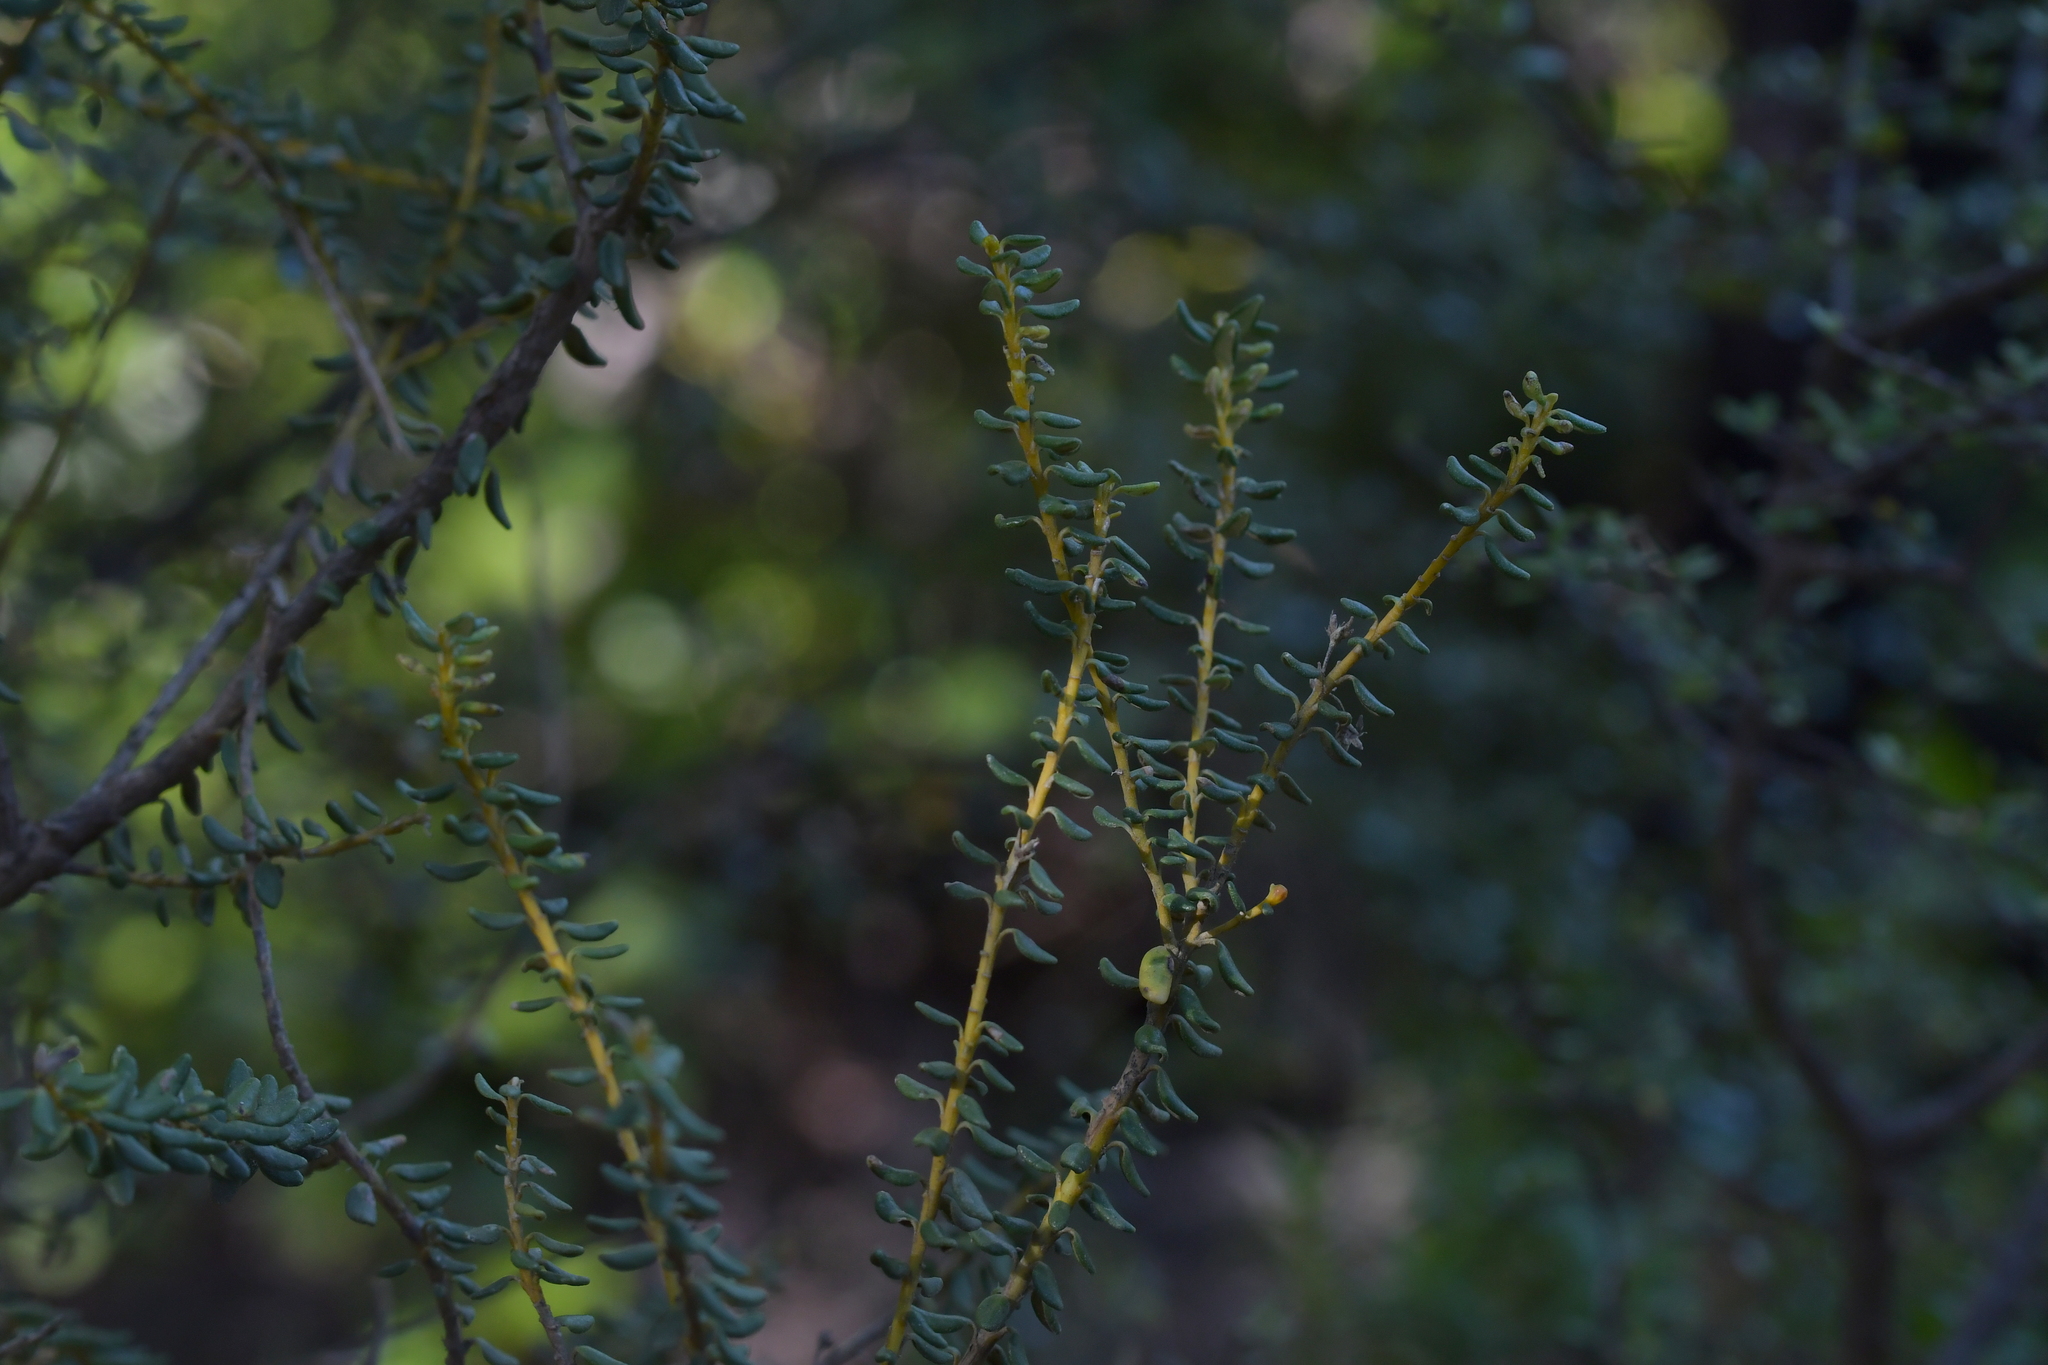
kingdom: Plantae
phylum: Tracheophyta
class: Magnoliopsida
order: Asterales
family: Asteraceae
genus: Olearia
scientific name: Olearia solandri
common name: Coastal daisybush
